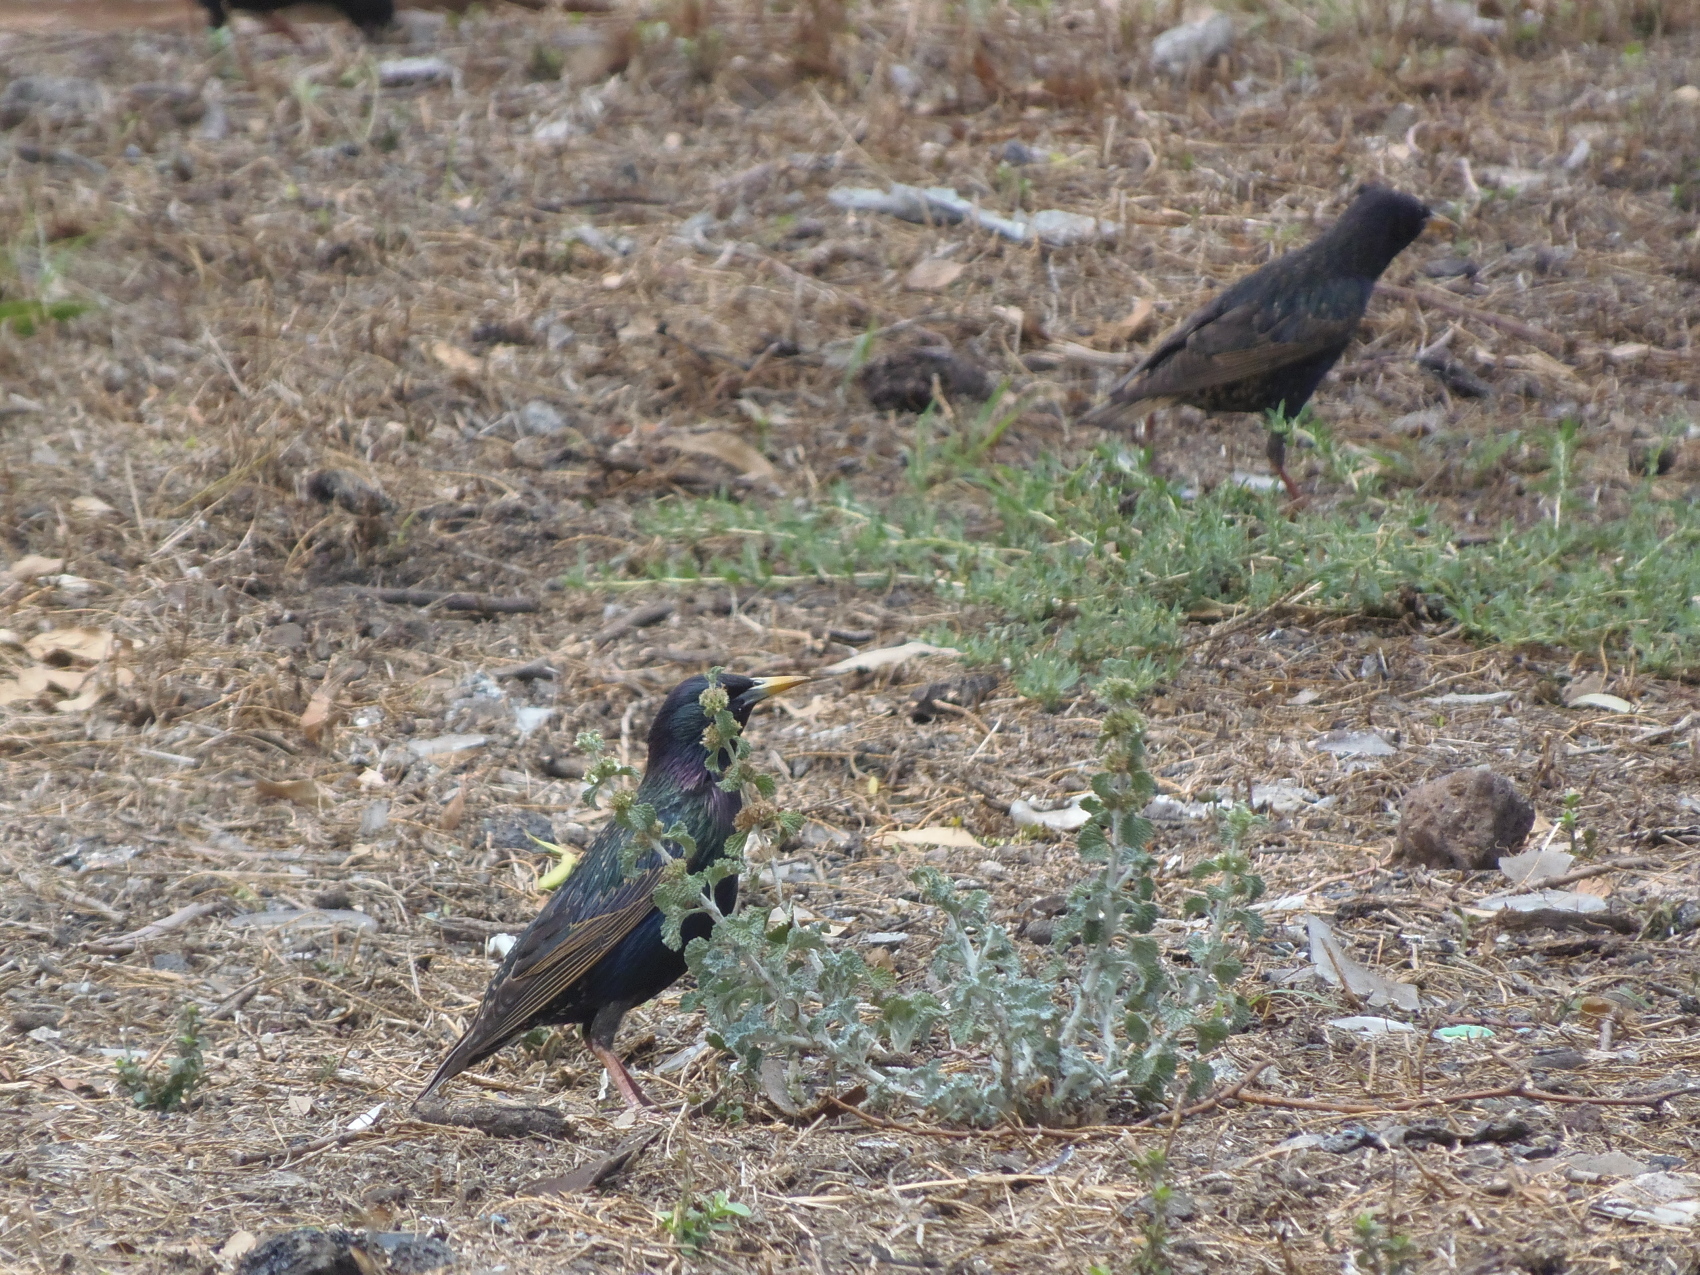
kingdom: Animalia
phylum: Chordata
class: Aves
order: Passeriformes
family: Sturnidae
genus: Sturnus
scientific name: Sturnus vulgaris
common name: Common starling
